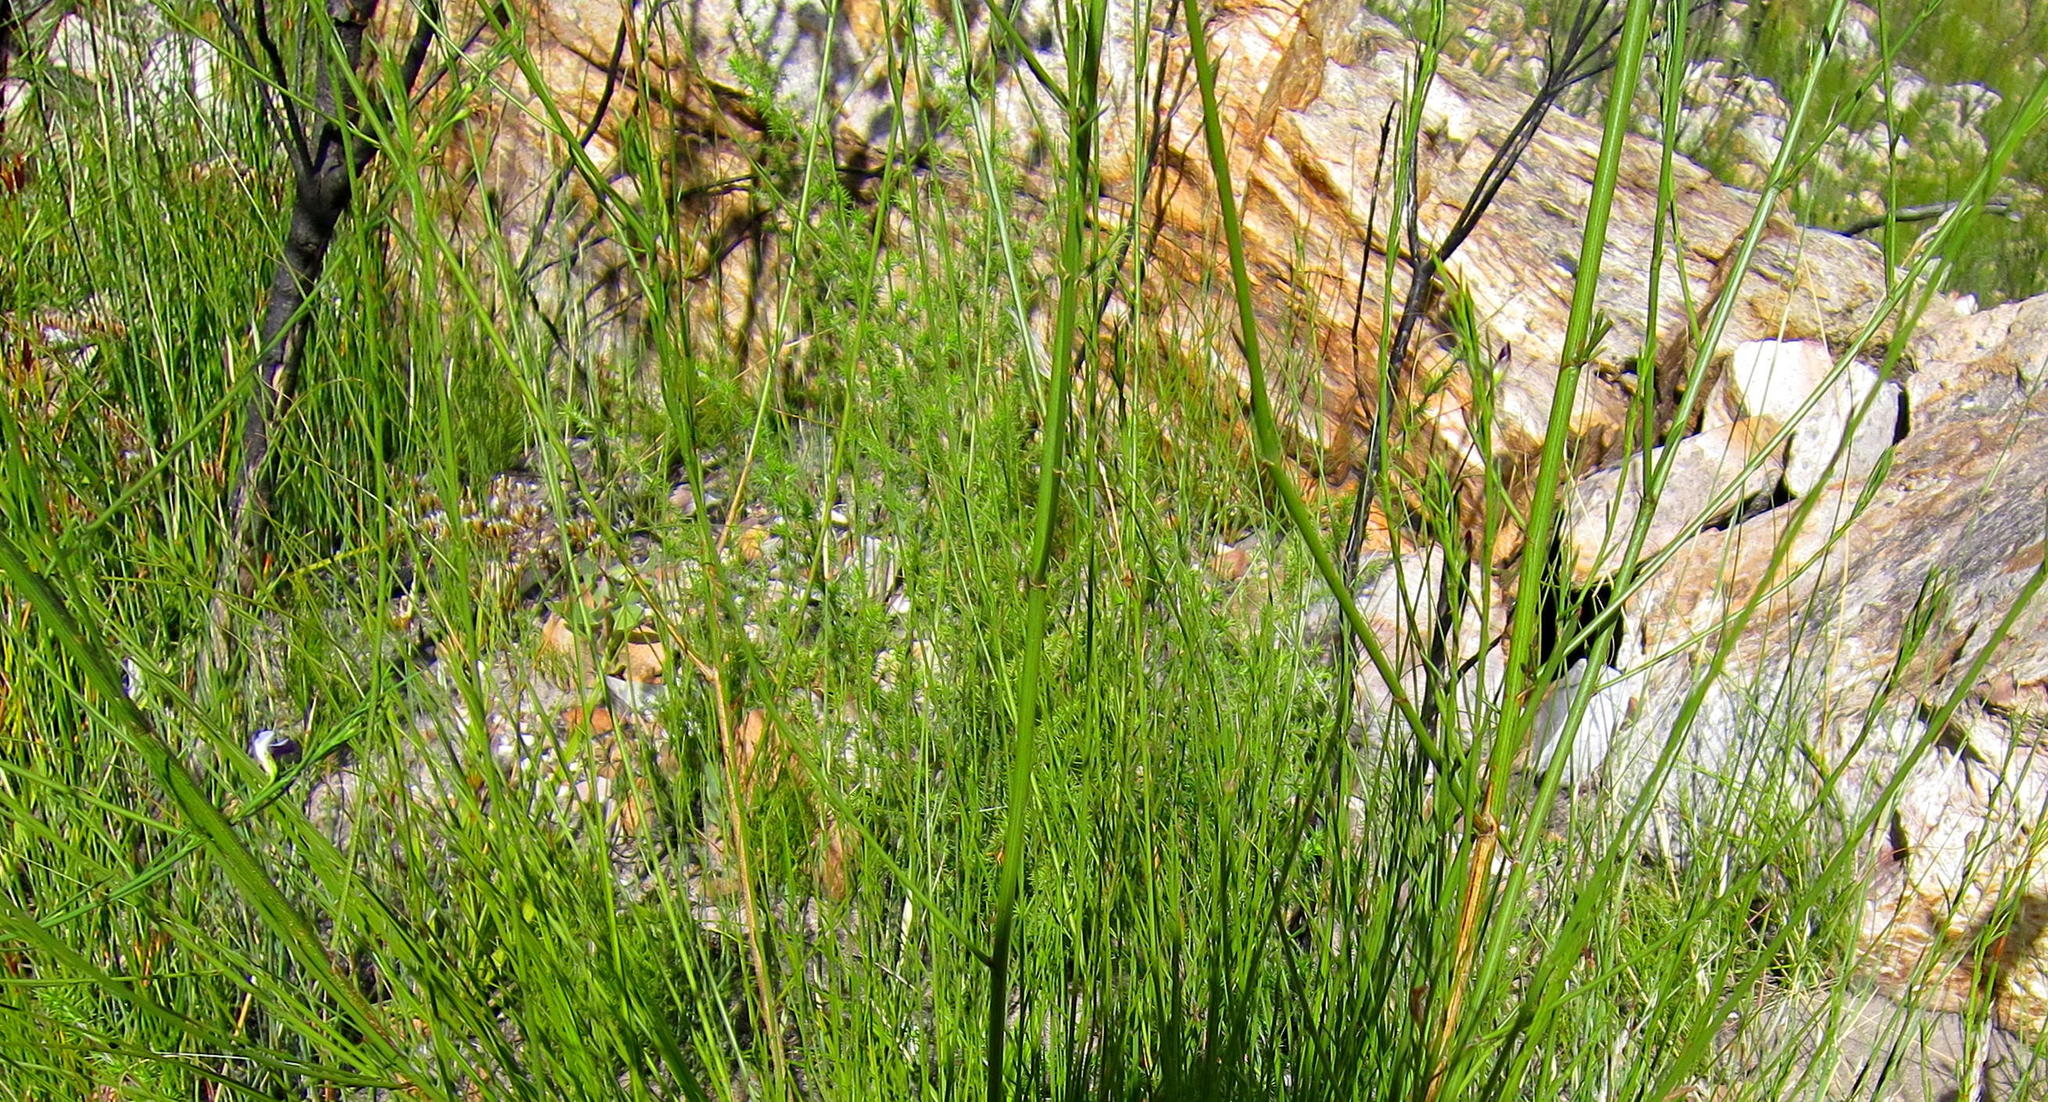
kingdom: Plantae
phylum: Tracheophyta
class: Magnoliopsida
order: Fabales
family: Fabaceae
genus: Psoralea
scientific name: Psoralea diturnerae
